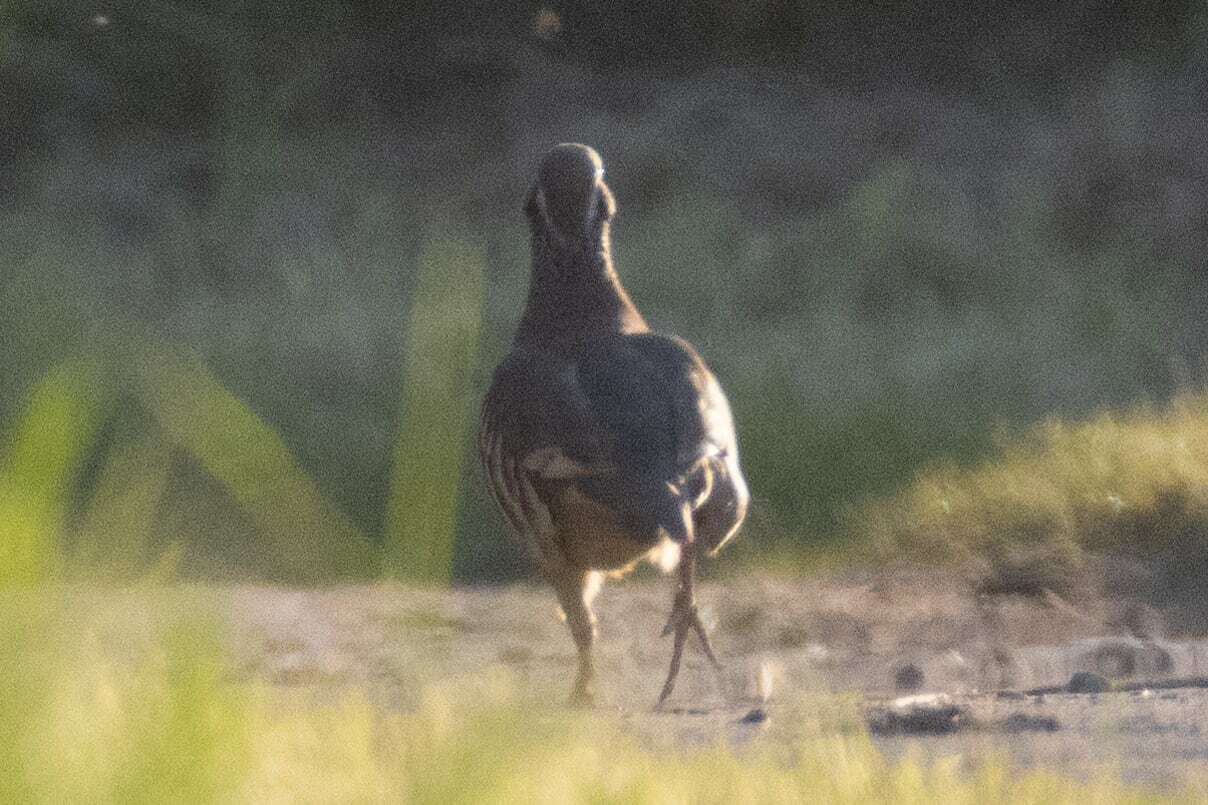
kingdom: Animalia
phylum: Chordata
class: Aves
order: Galliformes
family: Phasianidae
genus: Alectoris
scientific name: Alectoris rufa
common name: Red-legged partridge
